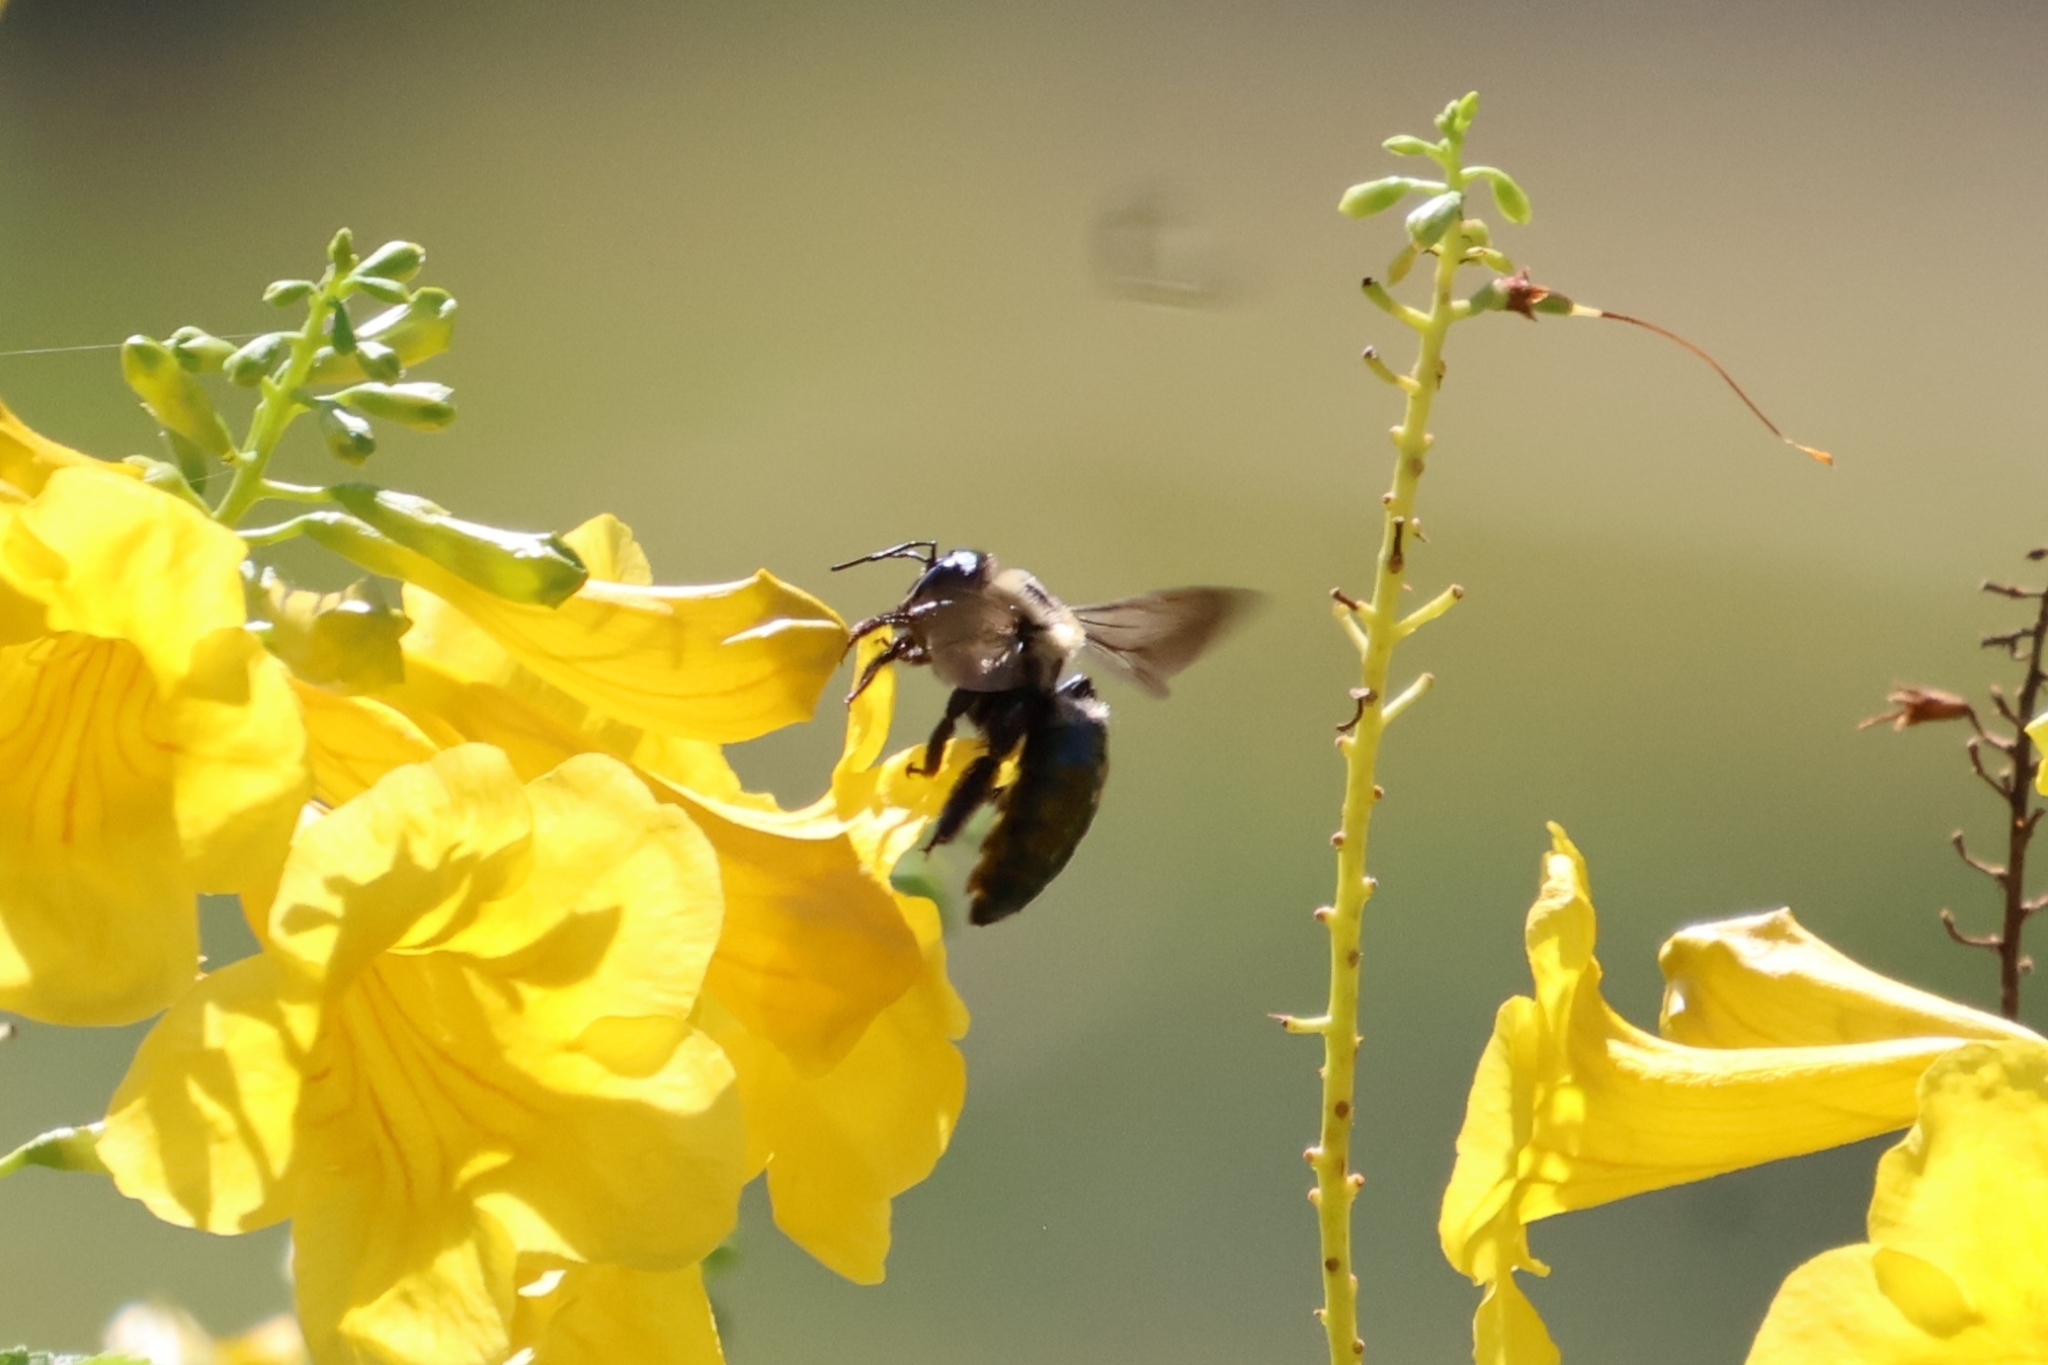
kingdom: Animalia
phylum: Arthropoda
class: Insecta
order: Hymenoptera
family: Apidae
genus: Xylocopa
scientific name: Xylocopa virginica
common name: Carpenter bee
